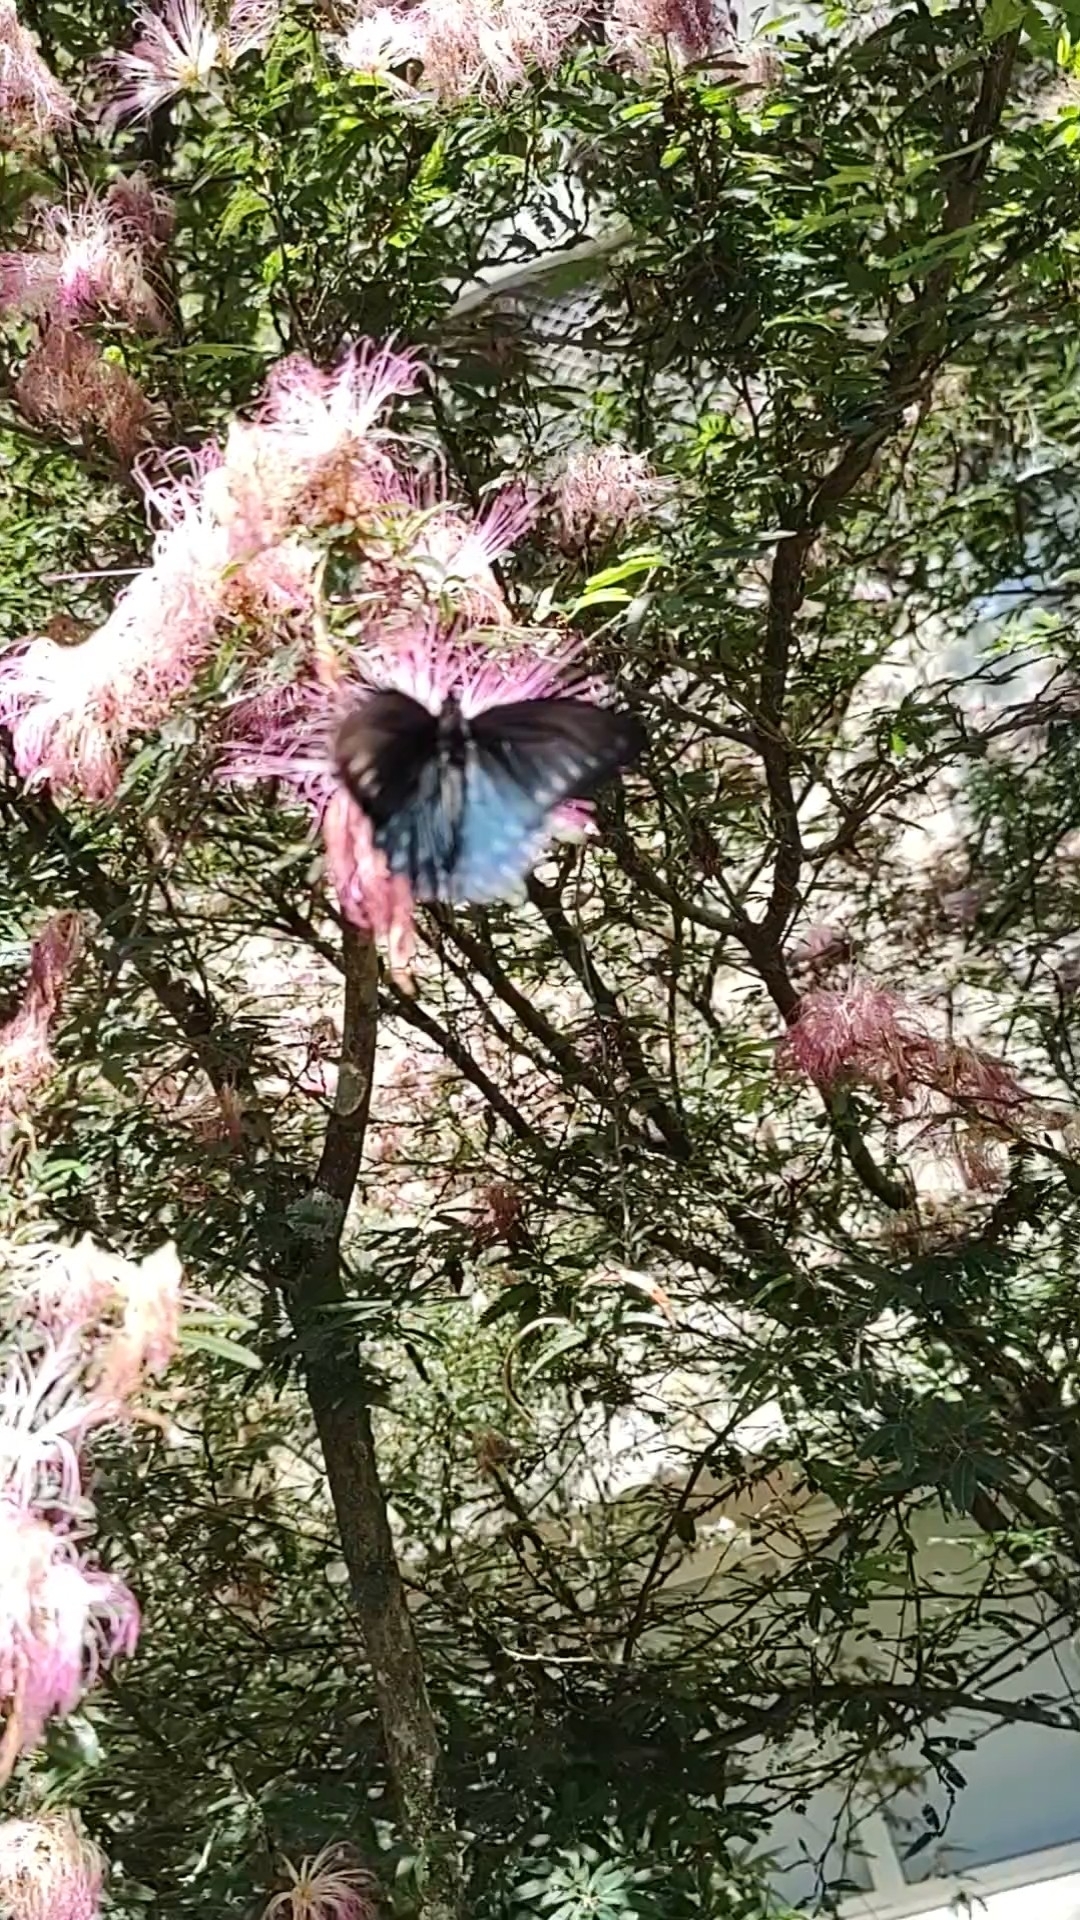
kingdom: Animalia
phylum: Arthropoda
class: Insecta
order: Lepidoptera
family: Papilionidae
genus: Battus
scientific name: Battus polystictus
